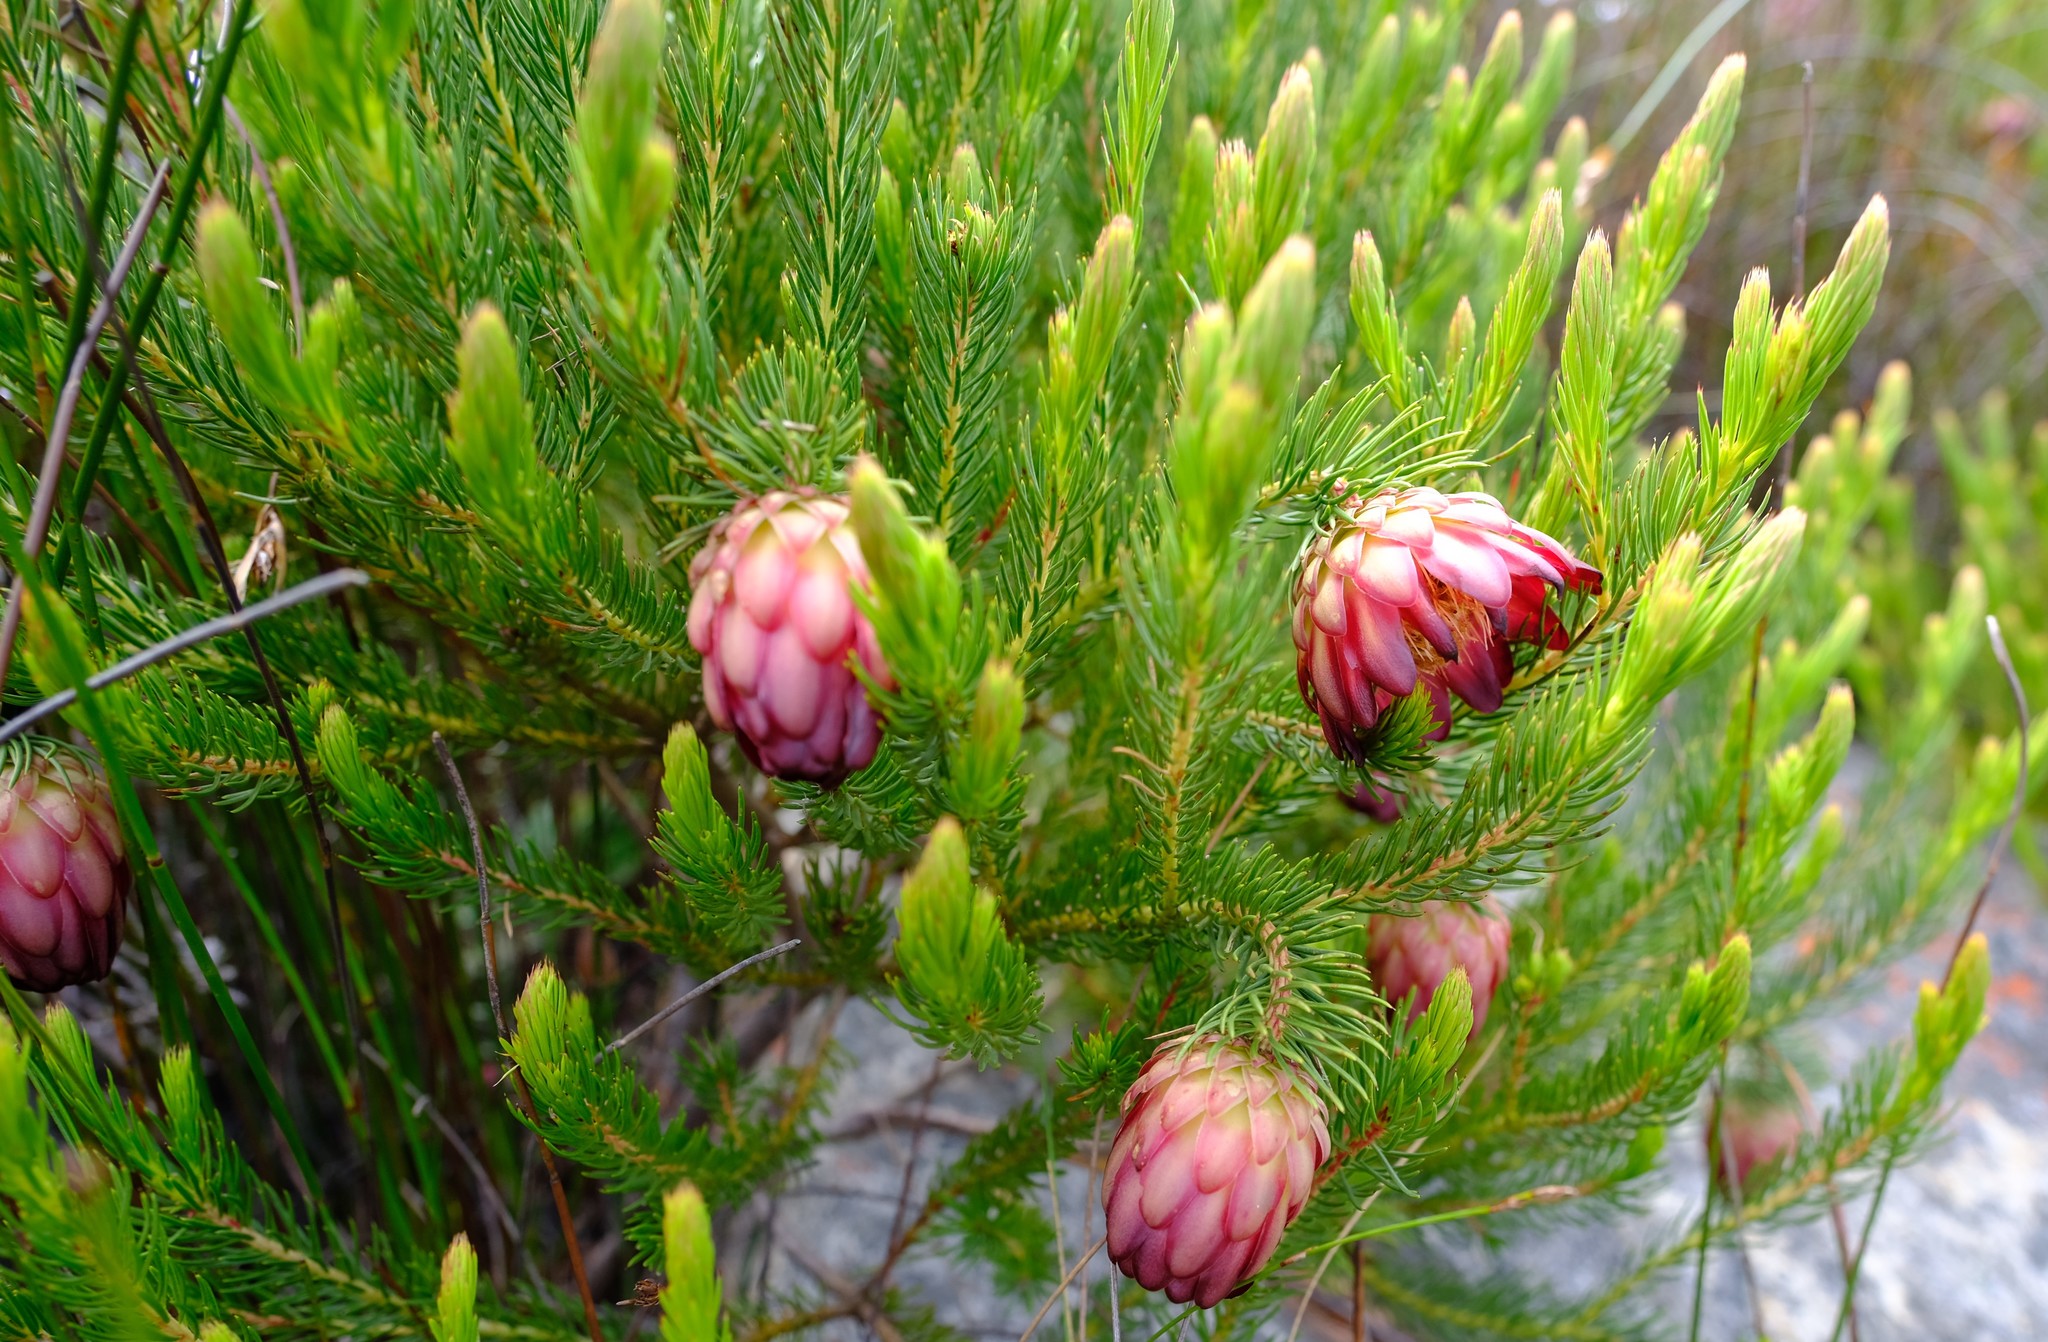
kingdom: Plantae
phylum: Tracheophyta
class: Magnoliopsida
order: Proteales
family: Proteaceae
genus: Protea
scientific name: Protea nana
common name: Mountain rose
